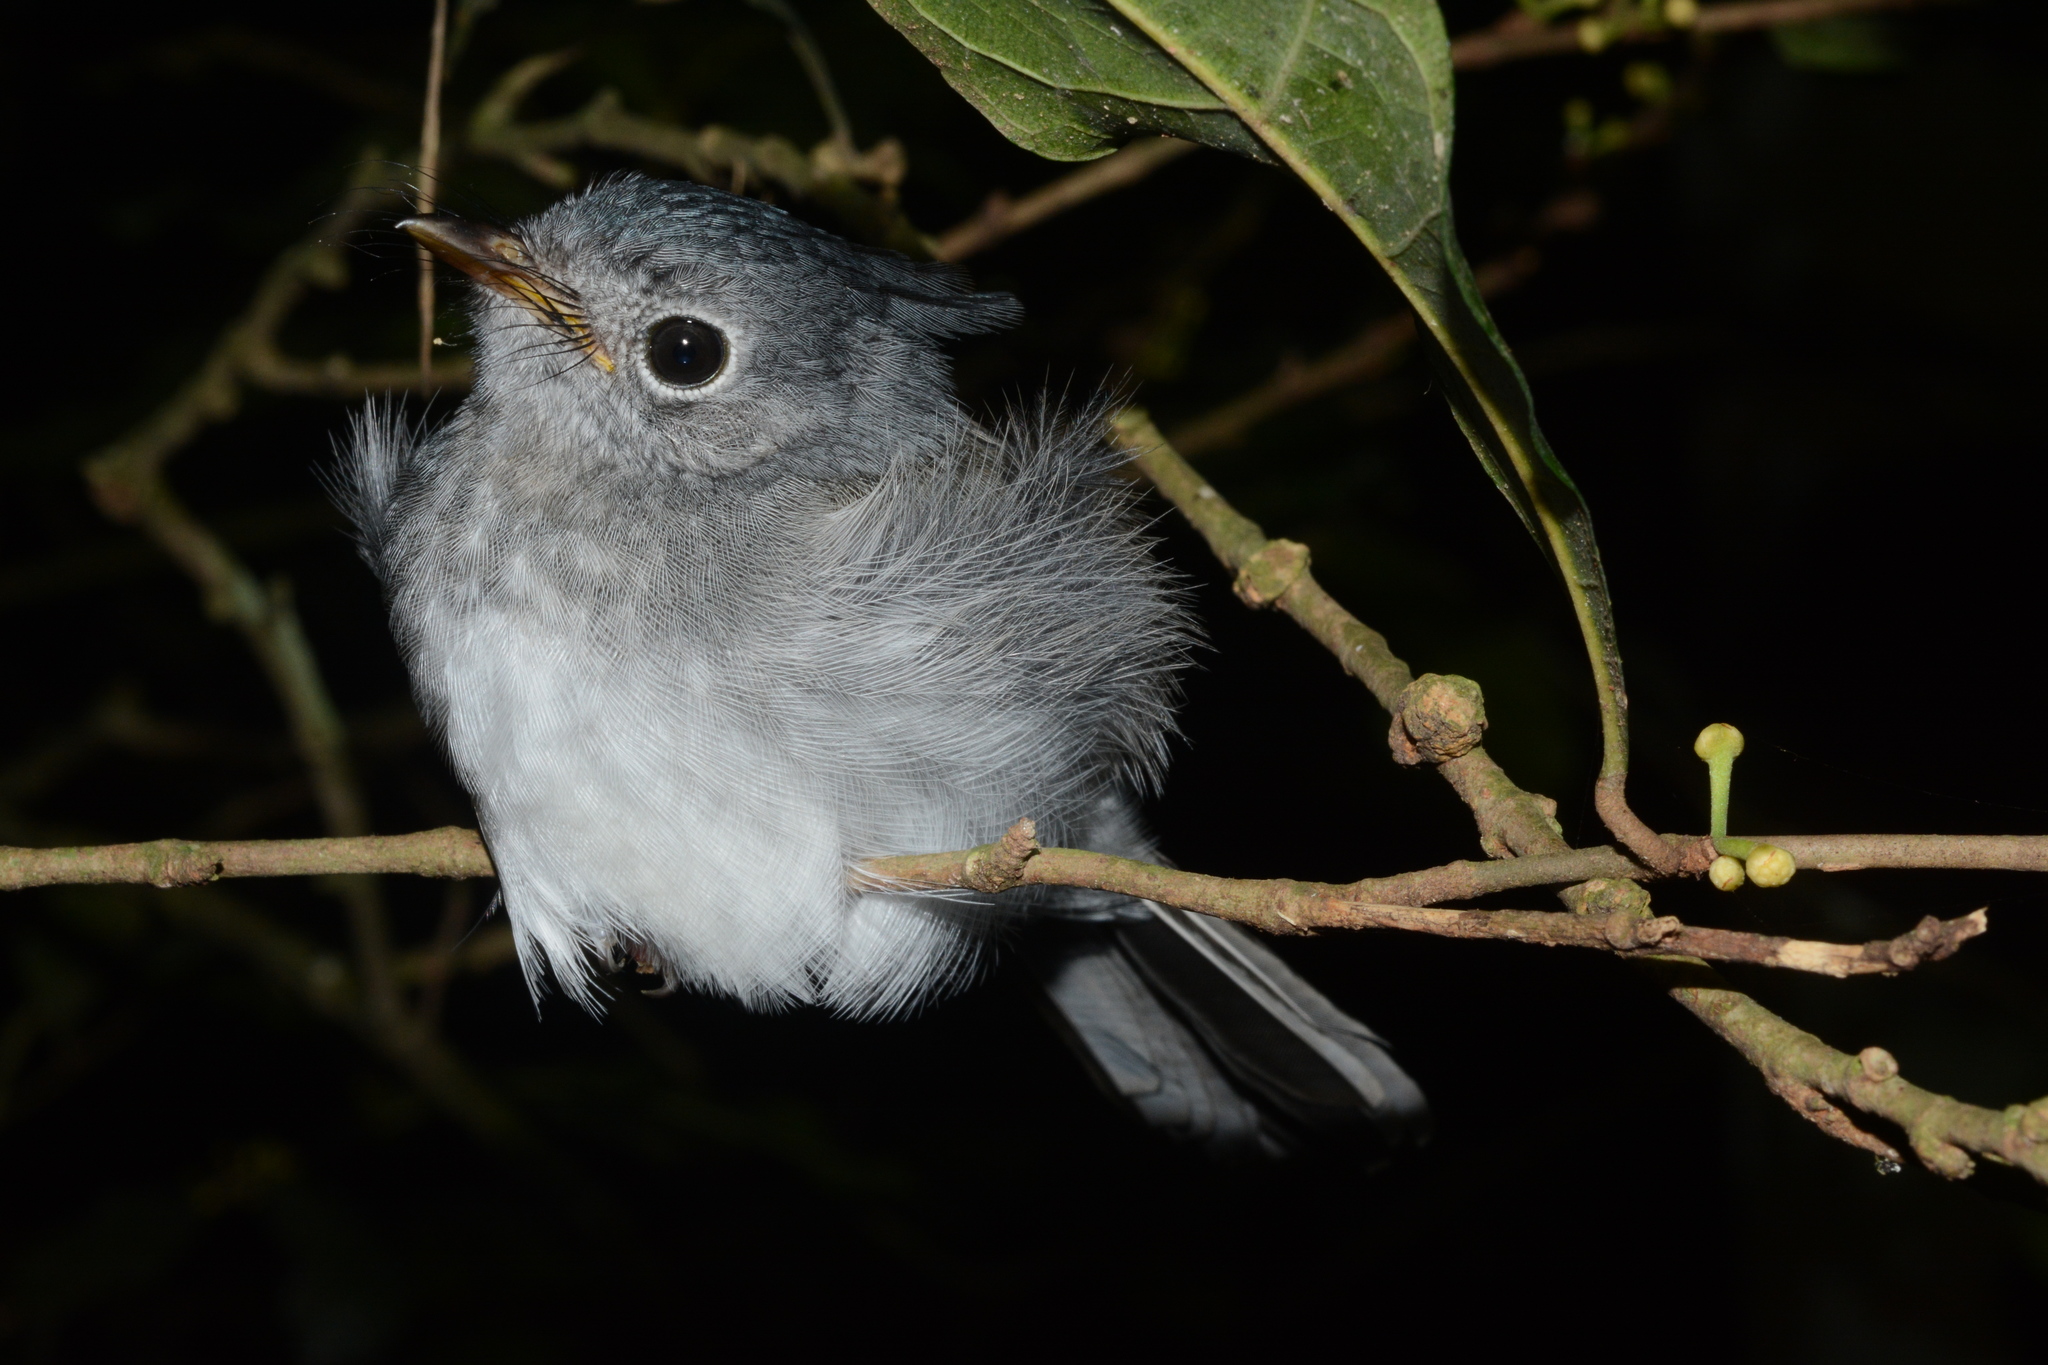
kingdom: Animalia
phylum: Chordata
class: Aves
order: Passeriformes
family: Monarchidae
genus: Trochocercus
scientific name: Trochocercus cyanomelas
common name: Blue-mantled crested flycatcher
